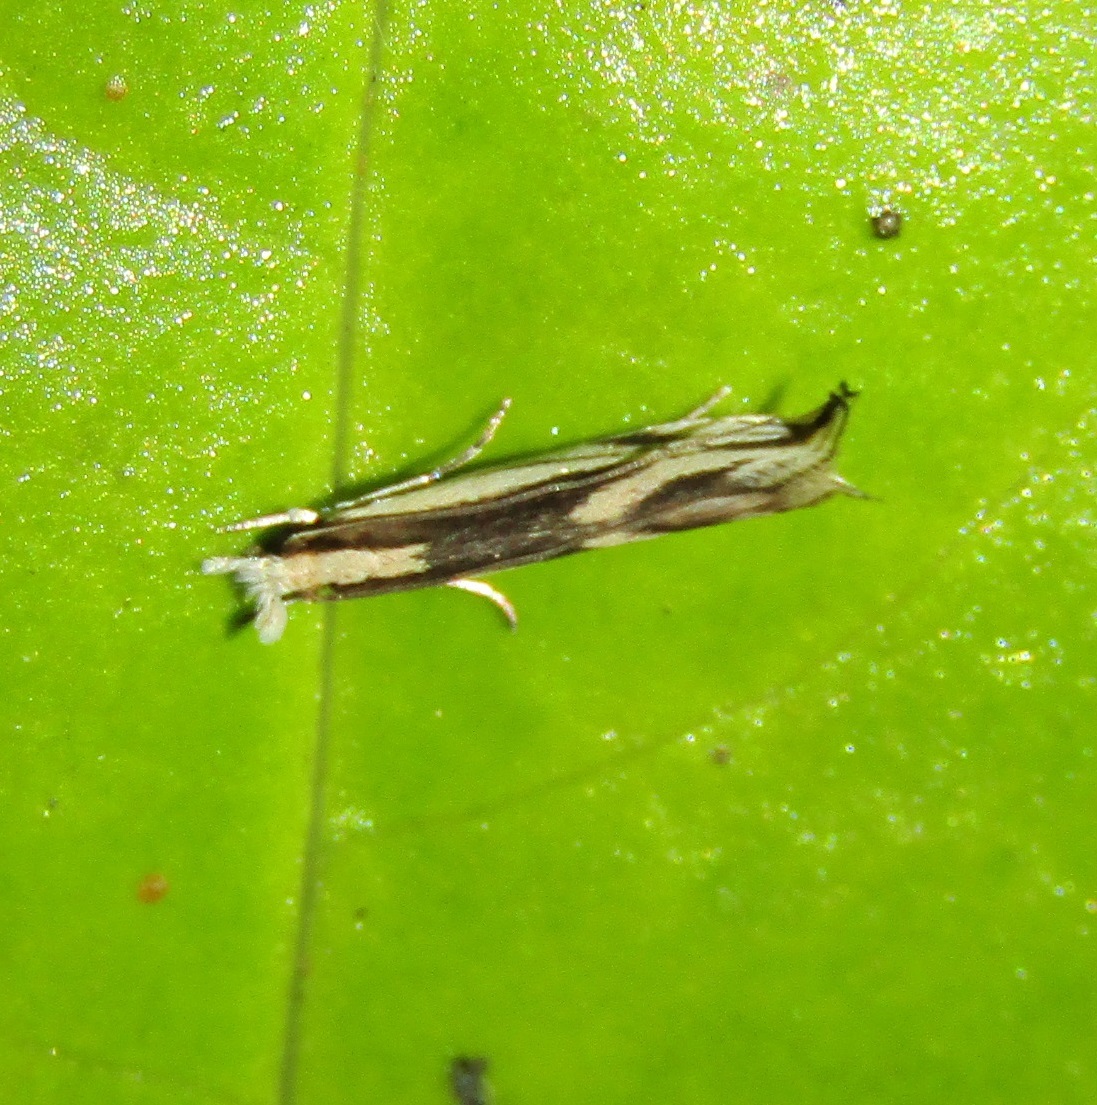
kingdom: Animalia
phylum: Arthropoda
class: Insecta
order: Lepidoptera
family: Tineidae
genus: Erechthias
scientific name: Erechthias chasmatias
